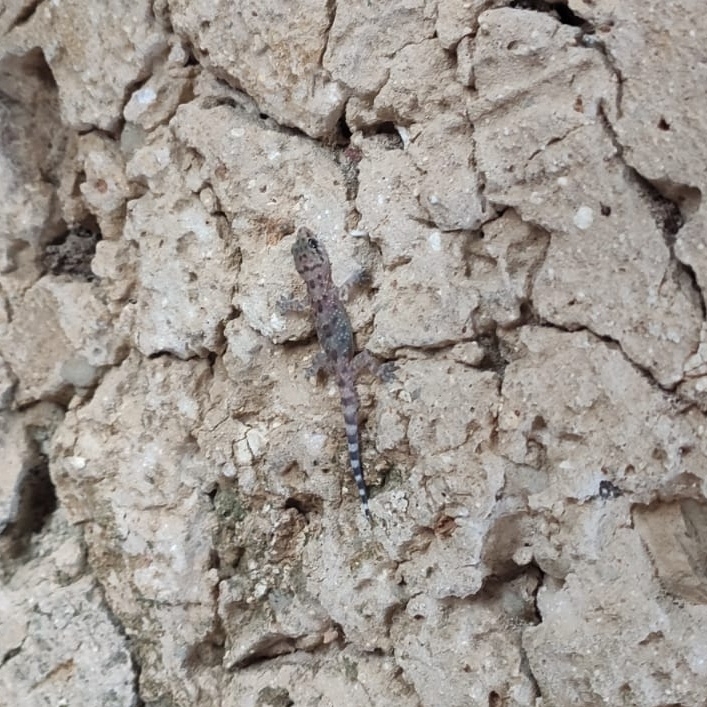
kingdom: Animalia
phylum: Chordata
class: Squamata
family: Gekkonidae
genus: Hemidactylus
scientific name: Hemidactylus turcicus
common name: Turkish gecko
